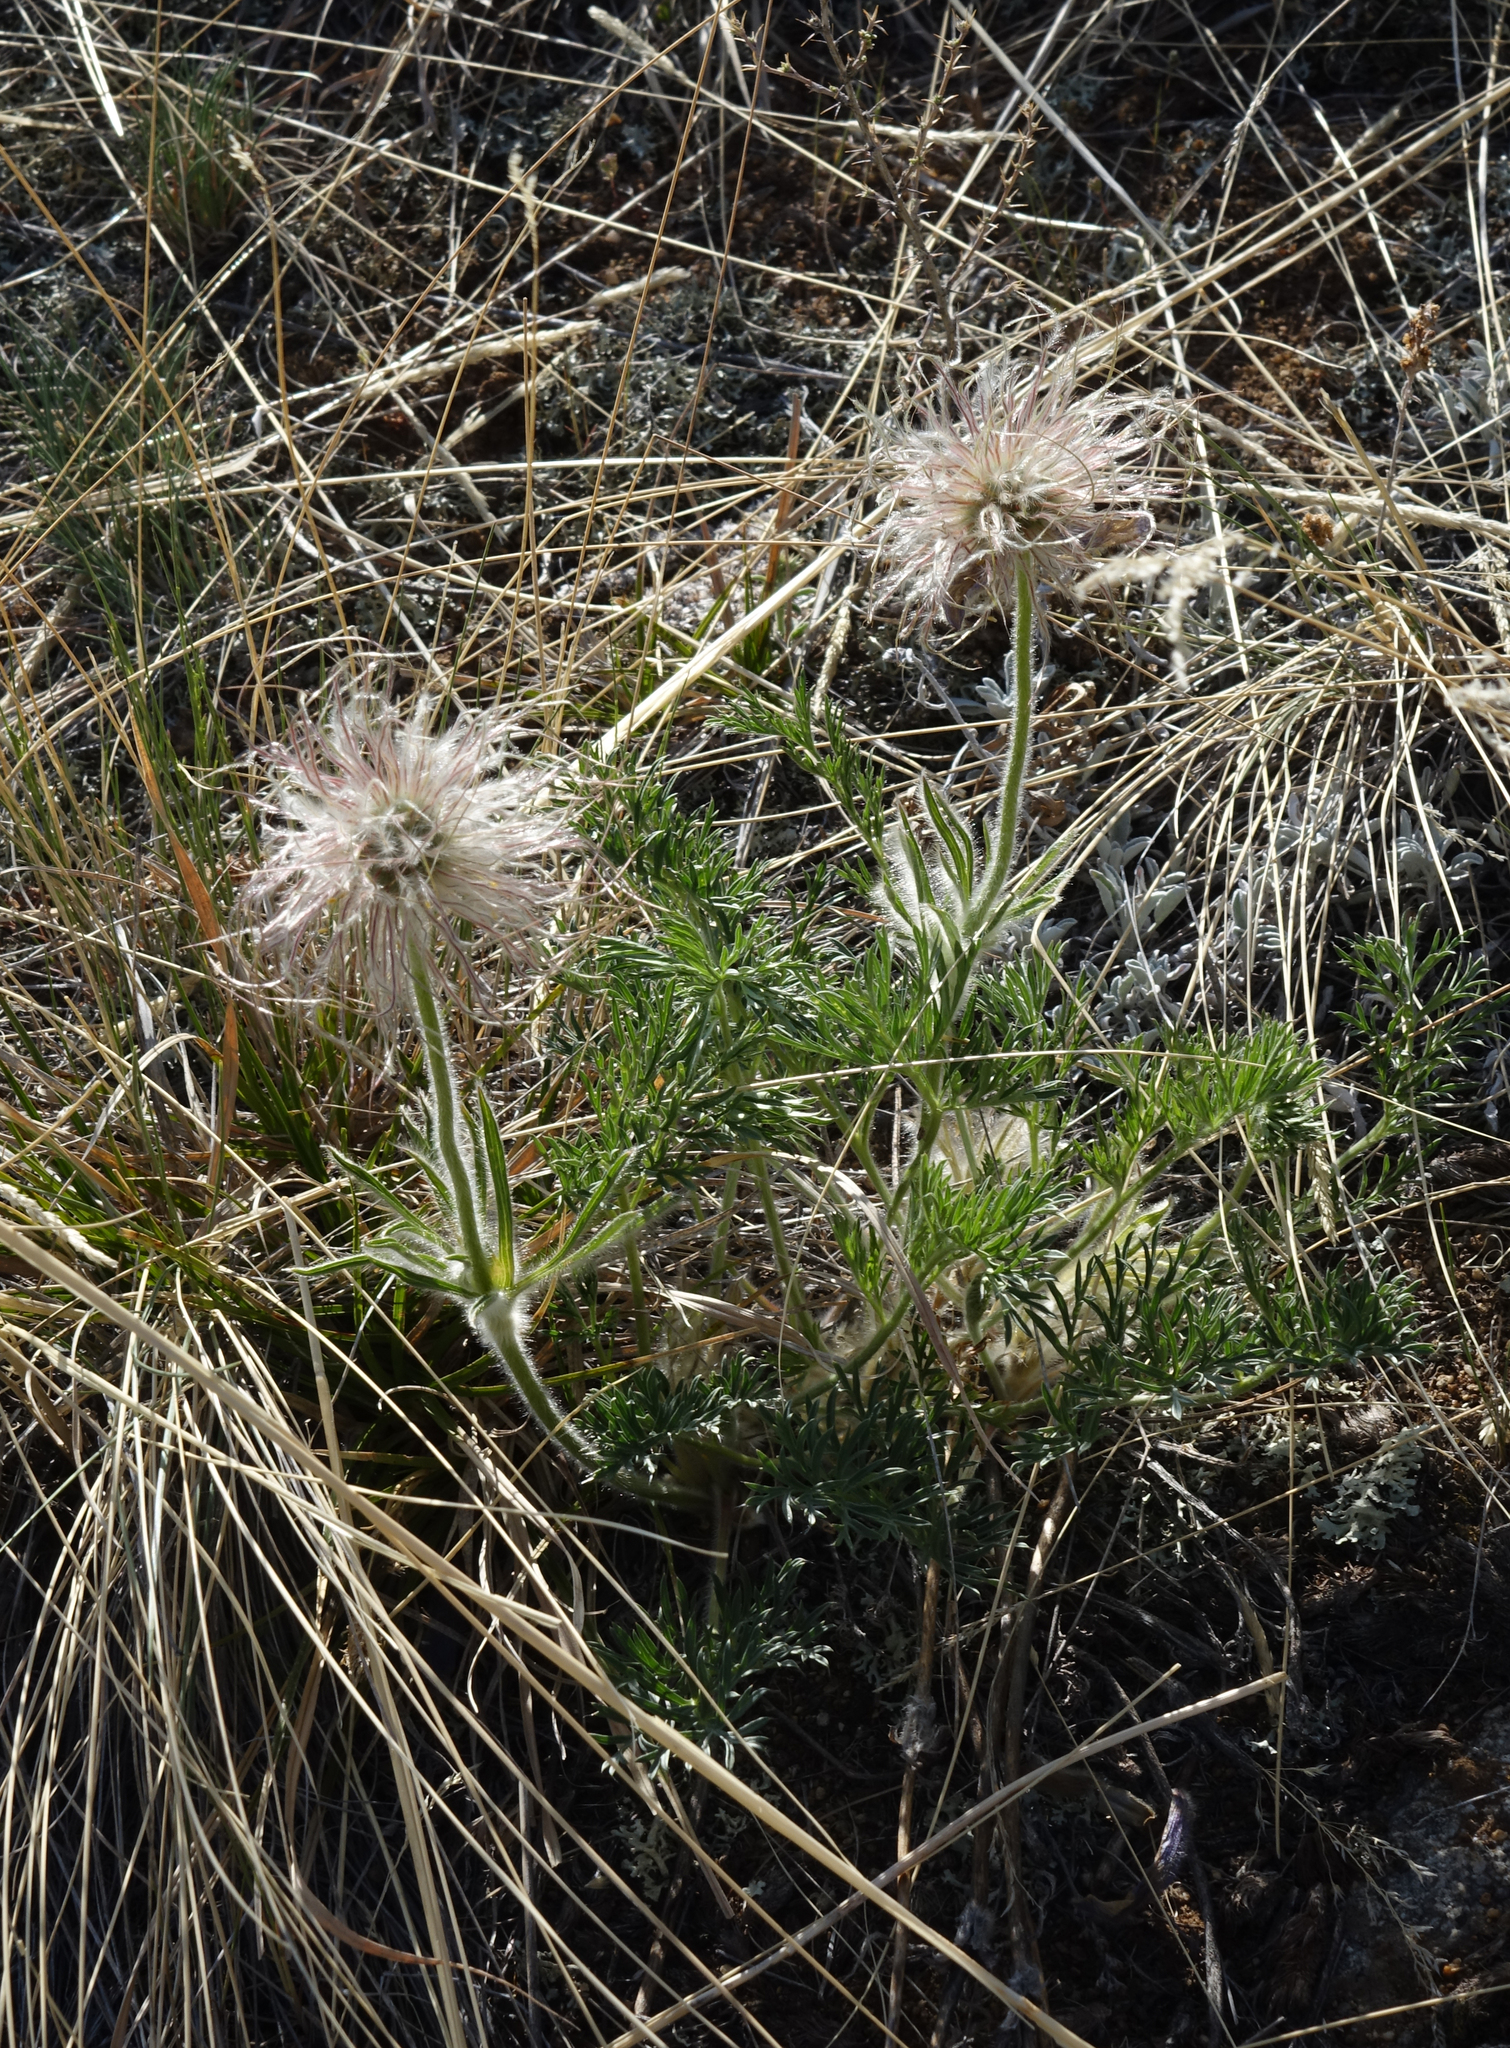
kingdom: Plantae
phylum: Tracheophyta
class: Magnoliopsida
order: Ranunculales
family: Ranunculaceae
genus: Pulsatilla
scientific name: Pulsatilla turczaninovii
